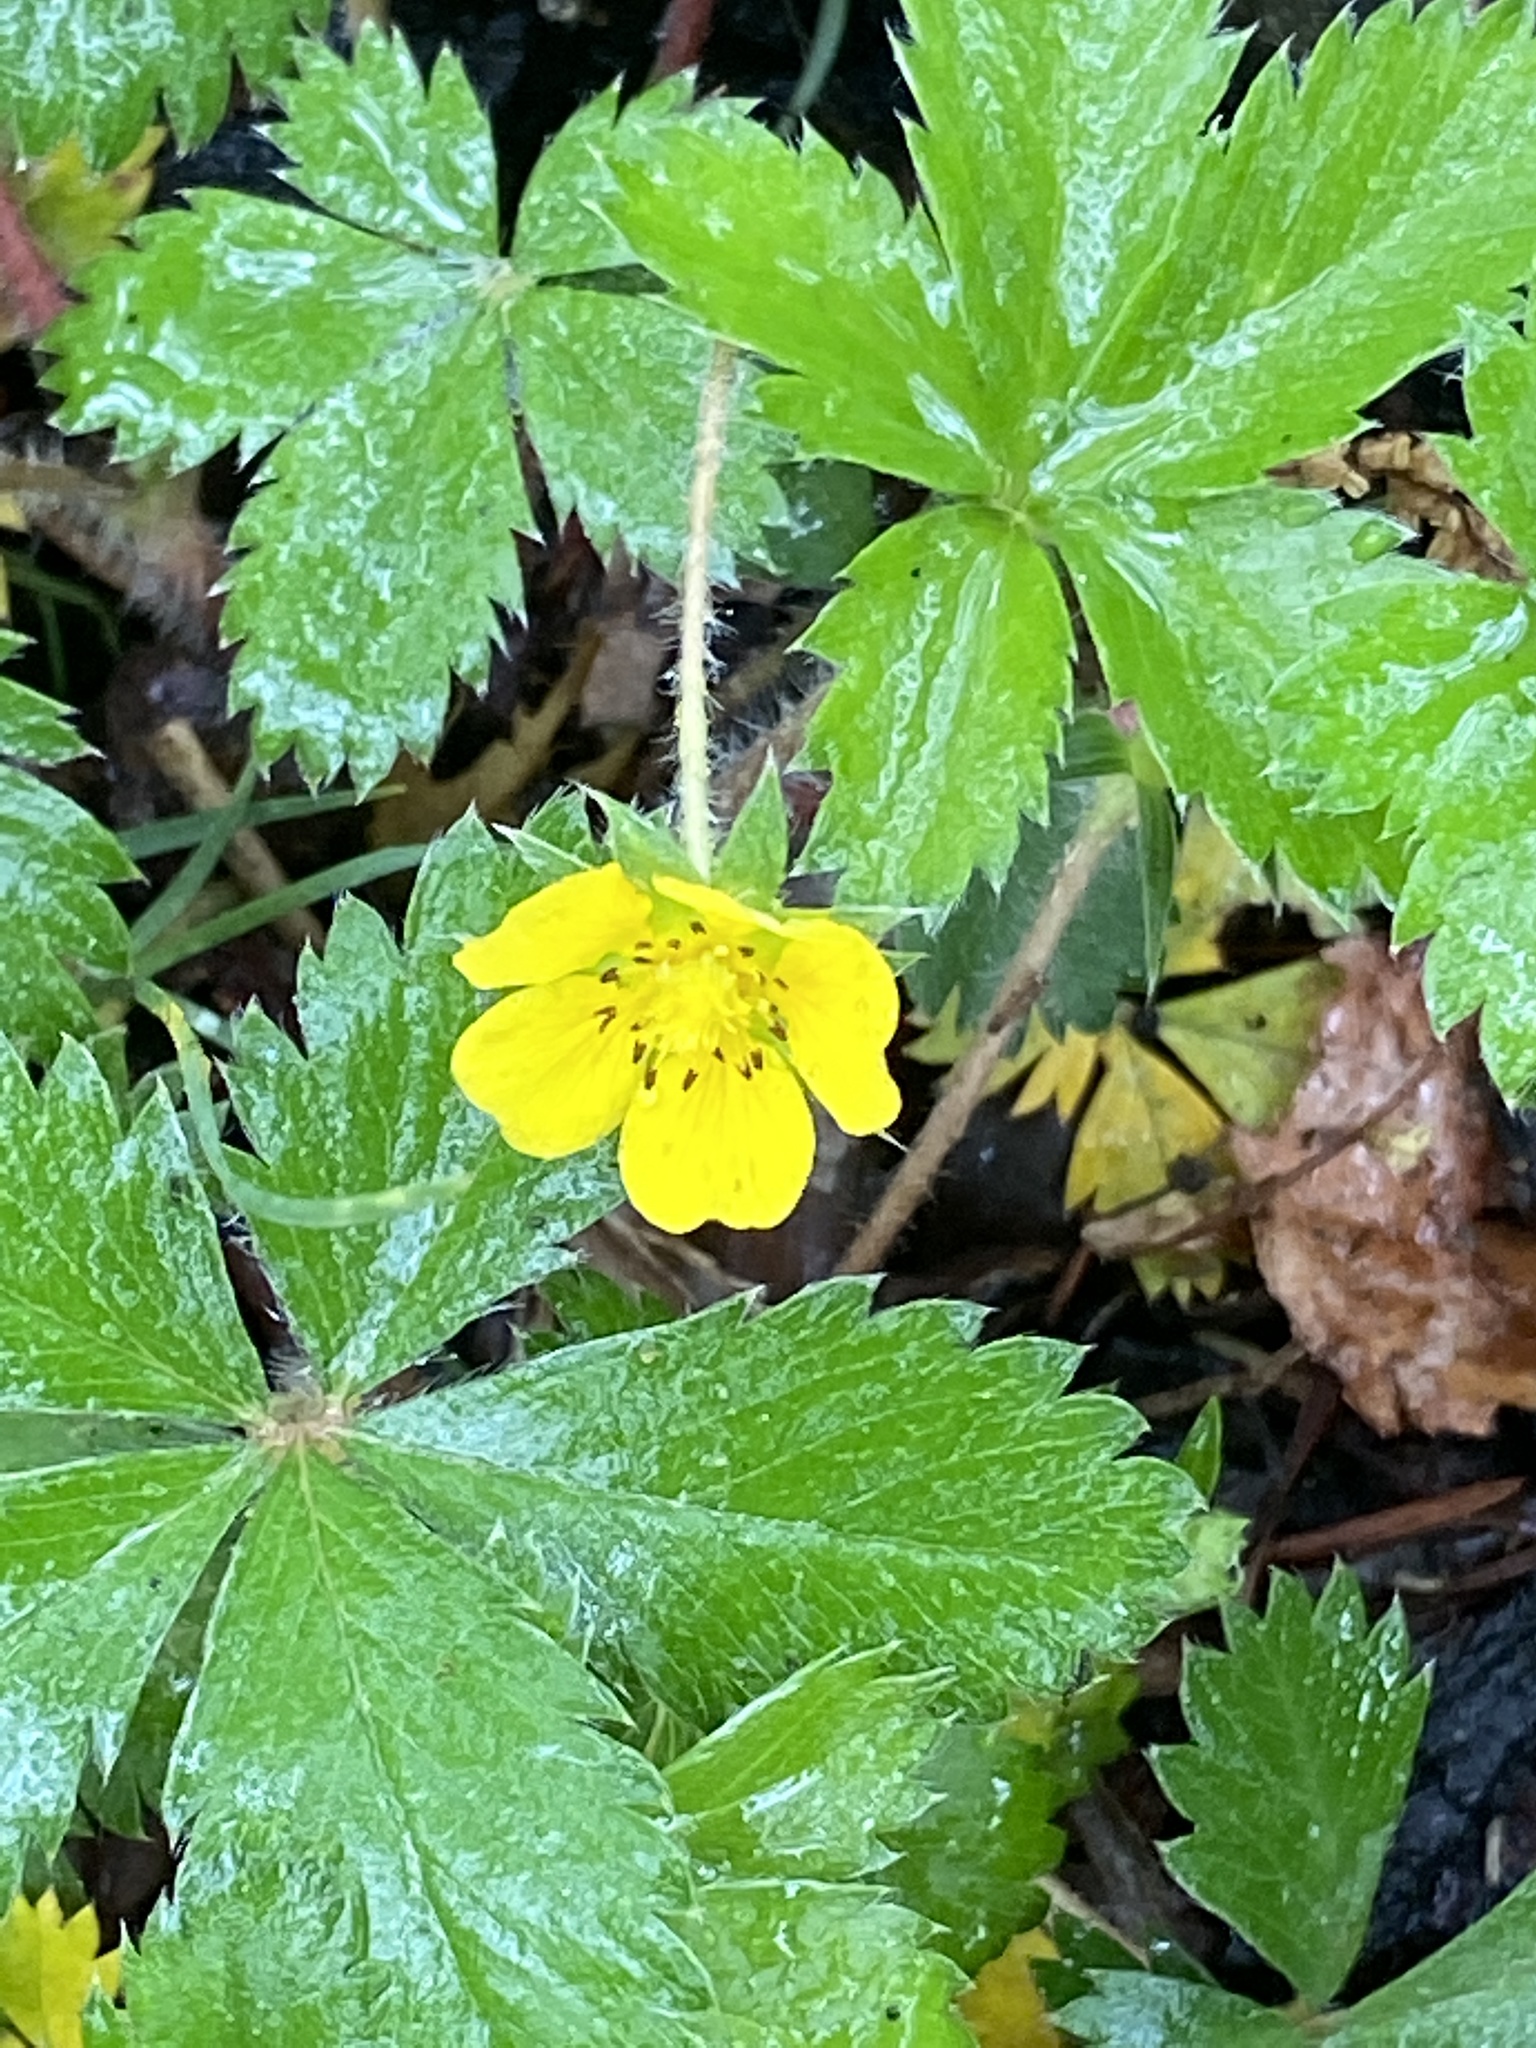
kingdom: Plantae
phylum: Tracheophyta
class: Magnoliopsida
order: Rosales
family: Rosaceae
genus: Potentilla
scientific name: Potentilla canadensis
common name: Canada cinquefoil
